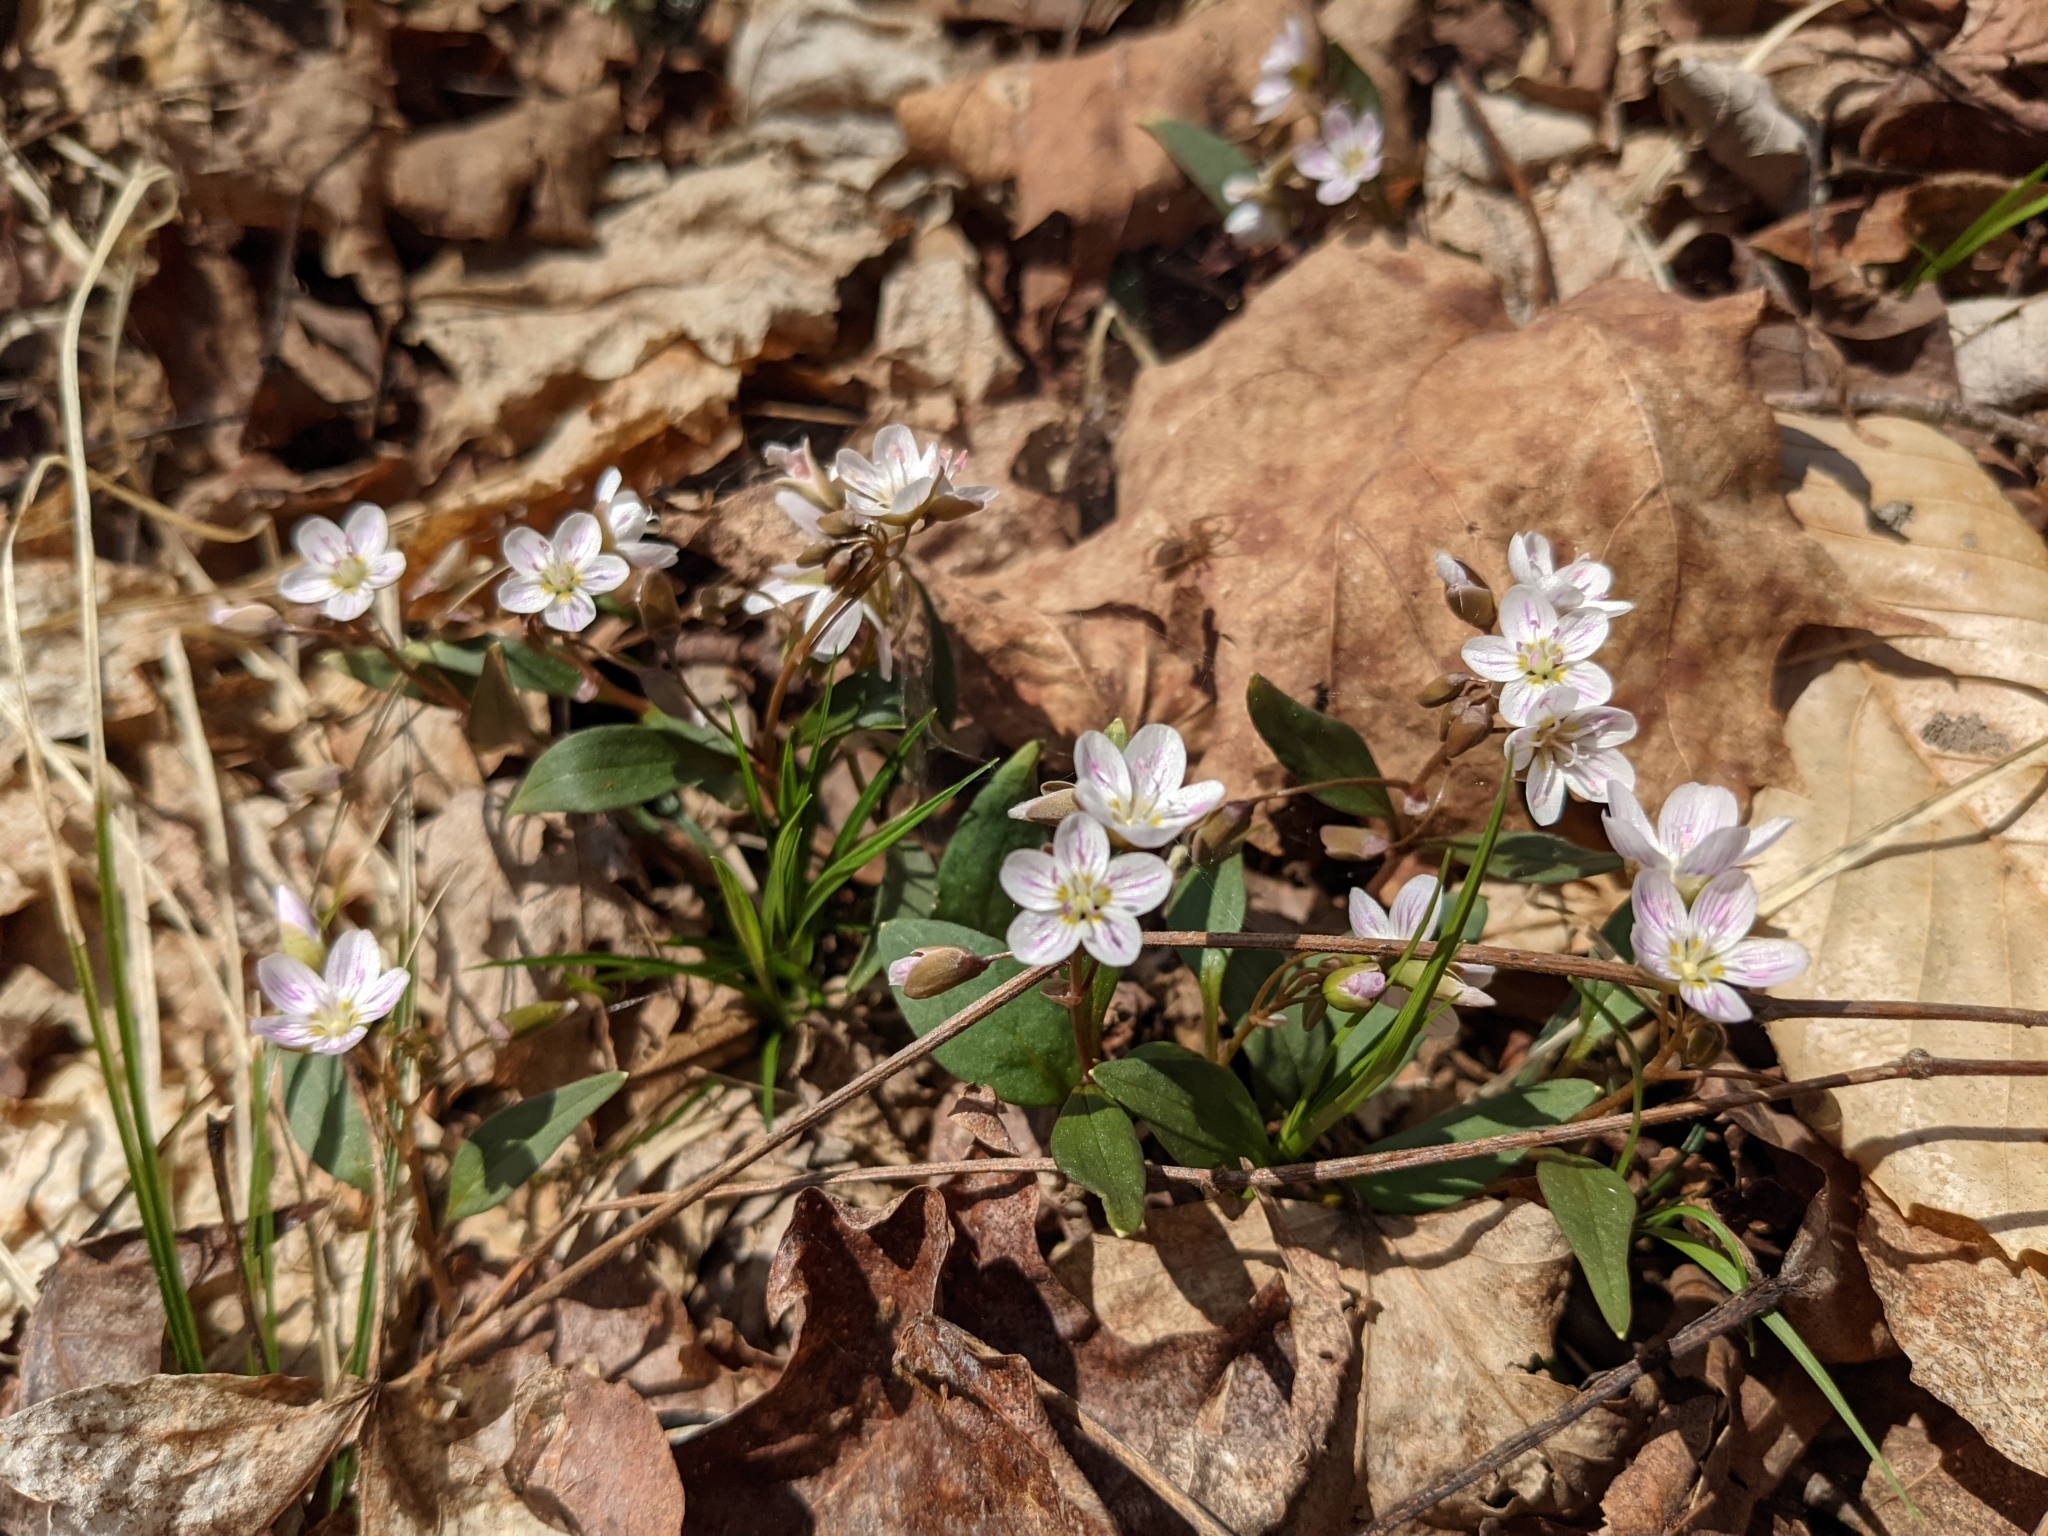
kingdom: Plantae
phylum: Tracheophyta
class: Magnoliopsida
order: Caryophyllales
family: Montiaceae
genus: Claytonia
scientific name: Claytonia caroliniana
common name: Carolina spring beauty
